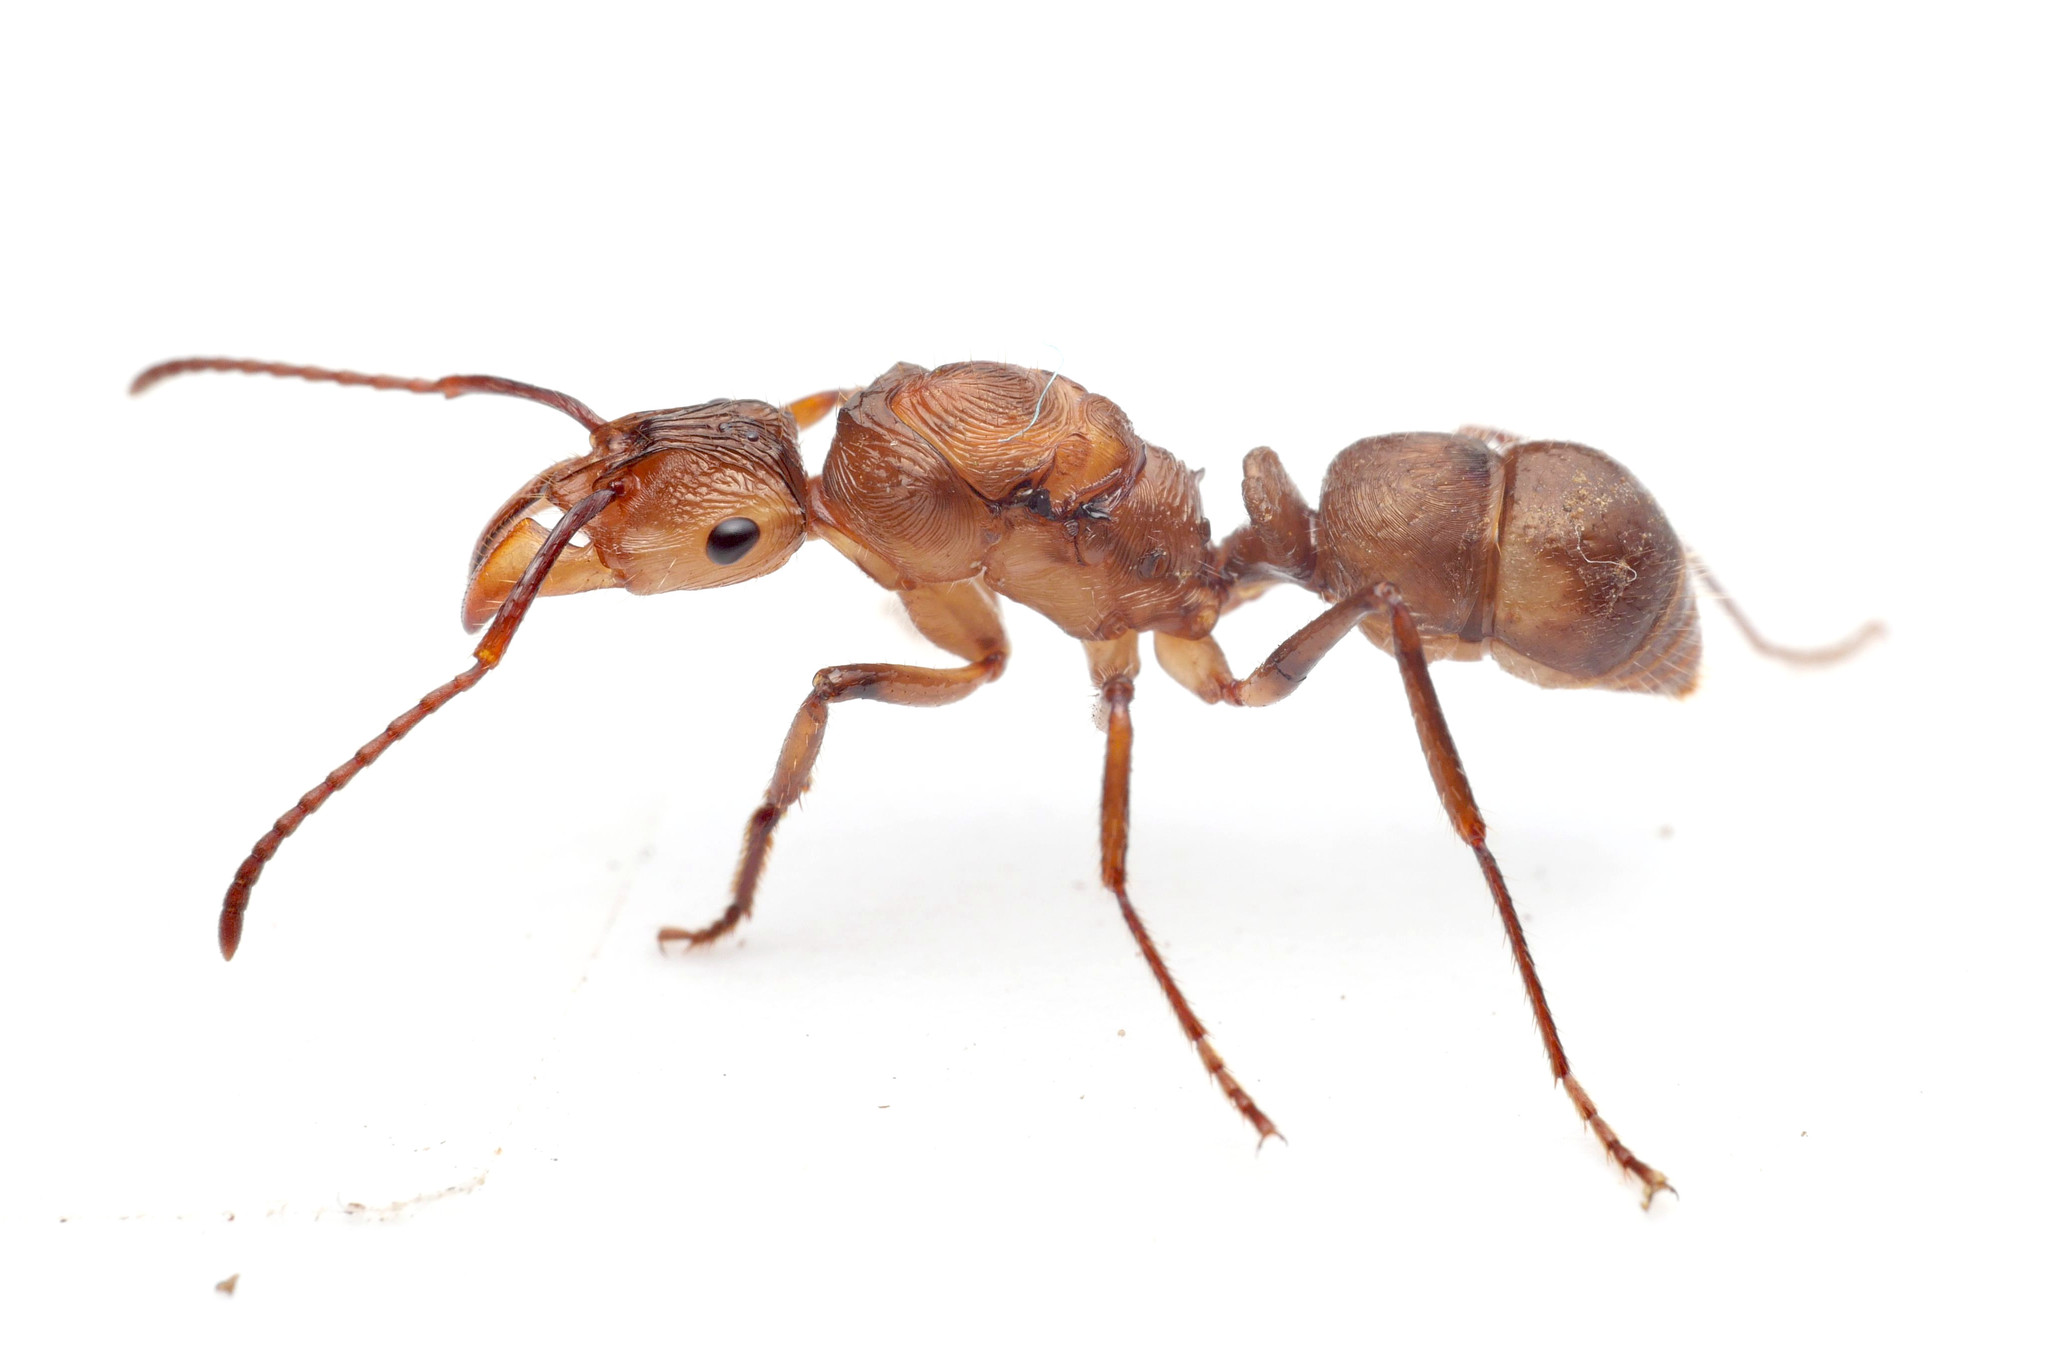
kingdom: Animalia
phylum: Arthropoda
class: Insecta
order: Hymenoptera
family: Formicidae
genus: Ectatomma
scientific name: Ectatomma tuberculatum
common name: Ant
